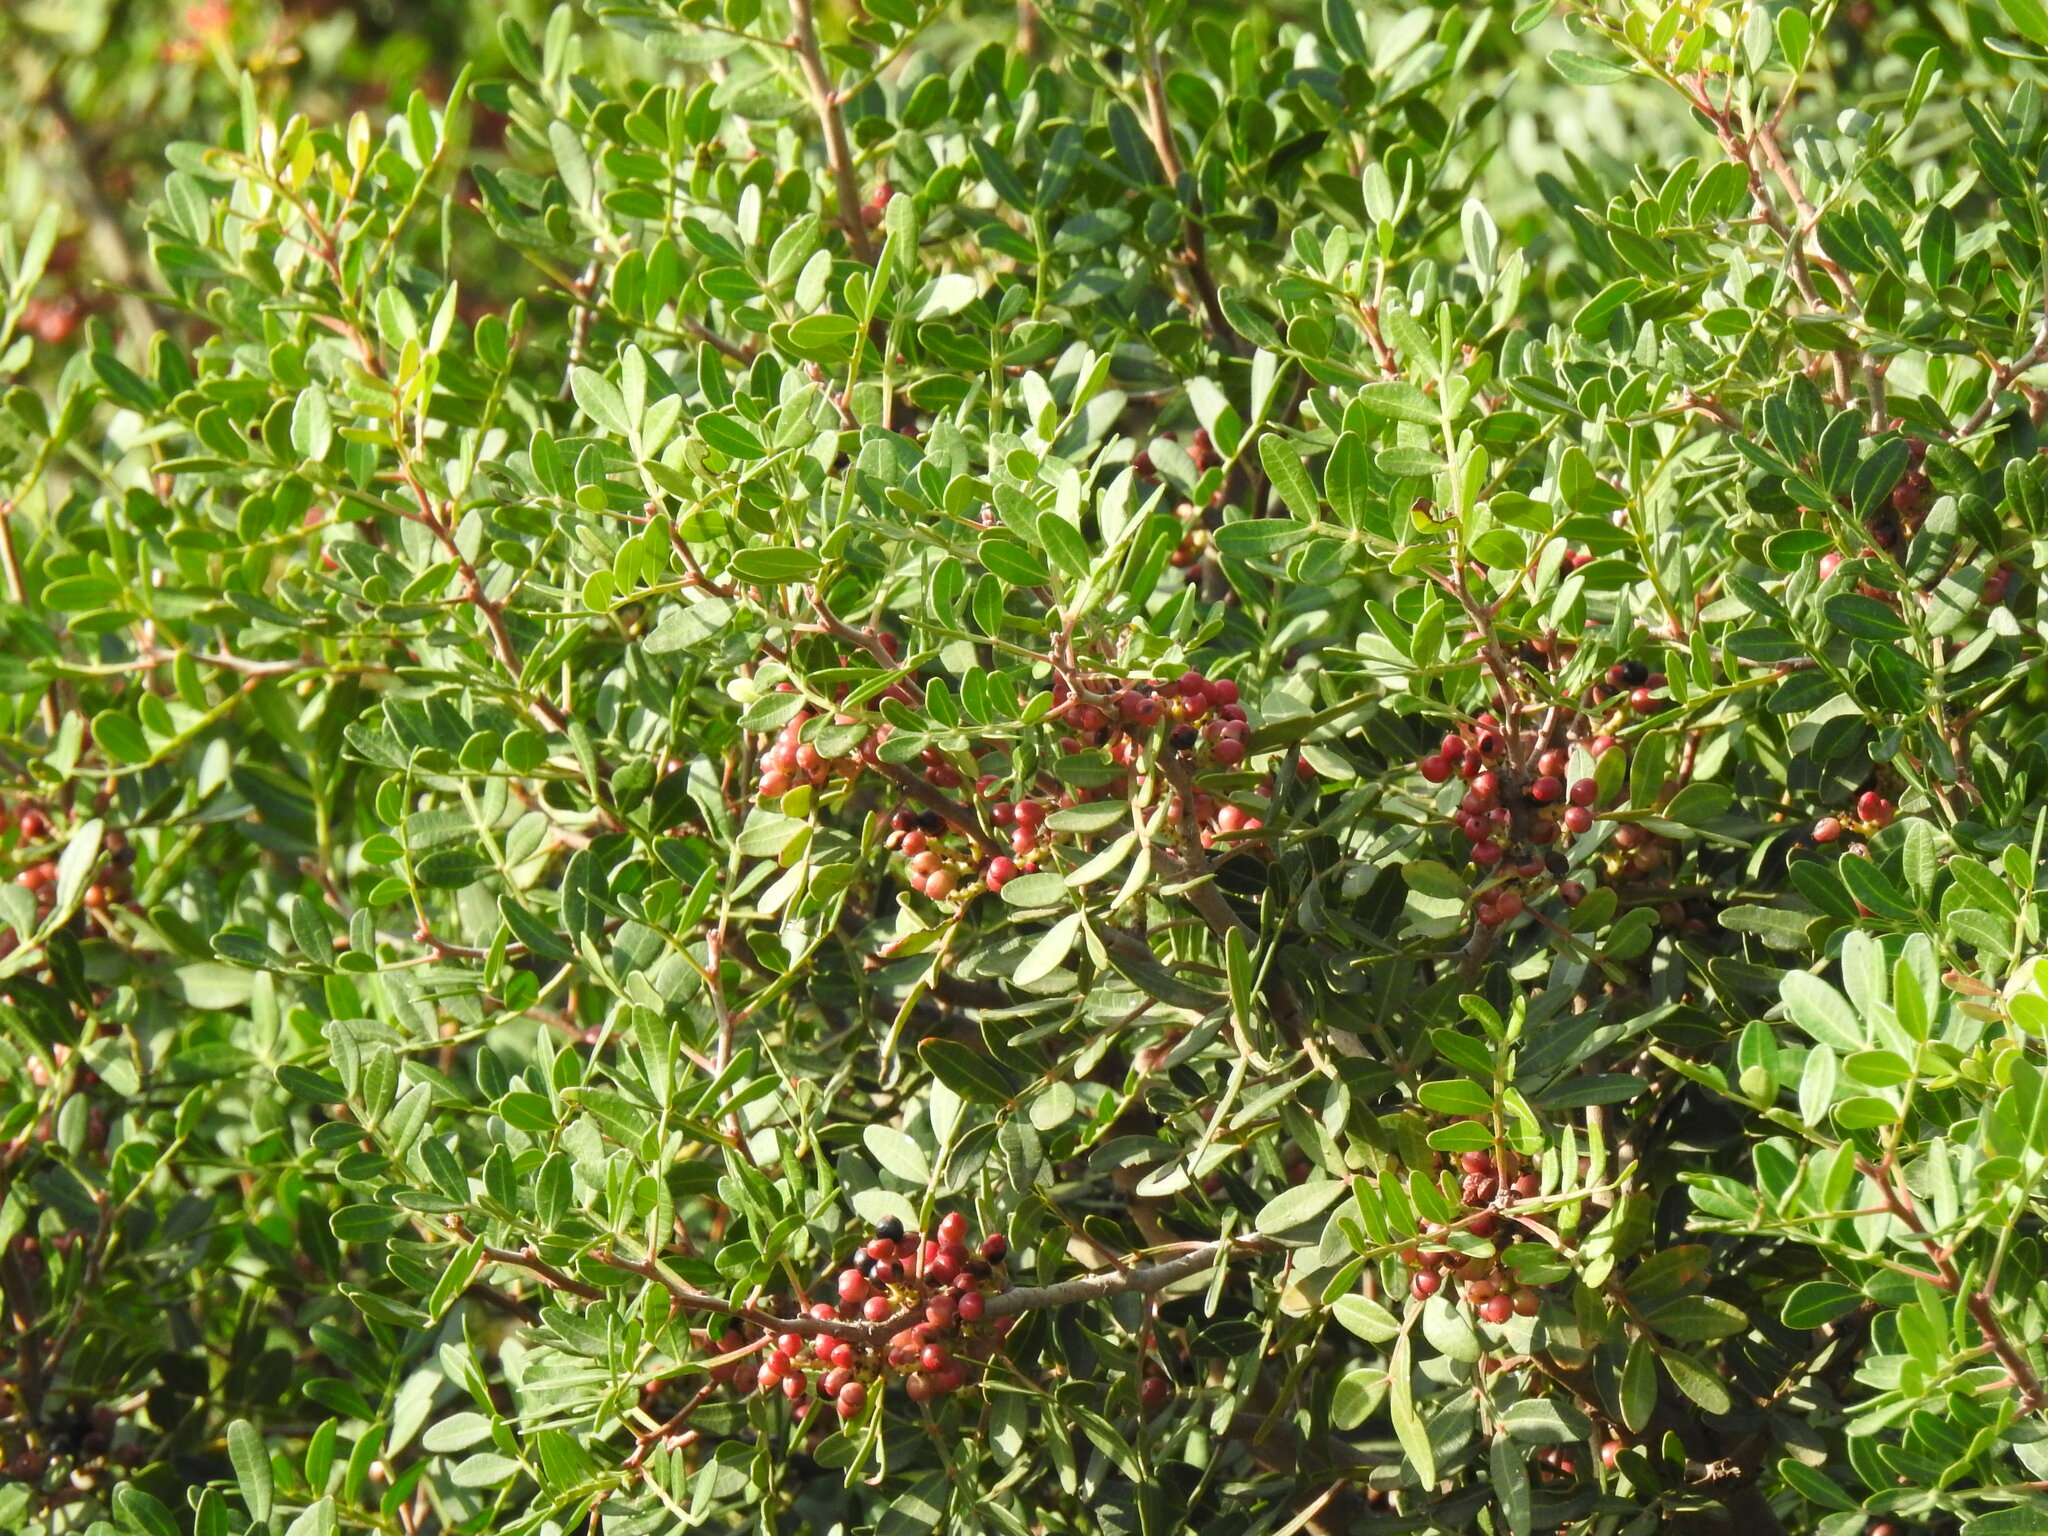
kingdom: Plantae
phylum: Tracheophyta
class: Magnoliopsida
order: Sapindales
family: Anacardiaceae
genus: Pistacia
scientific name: Pistacia lentiscus
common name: Lentisk
